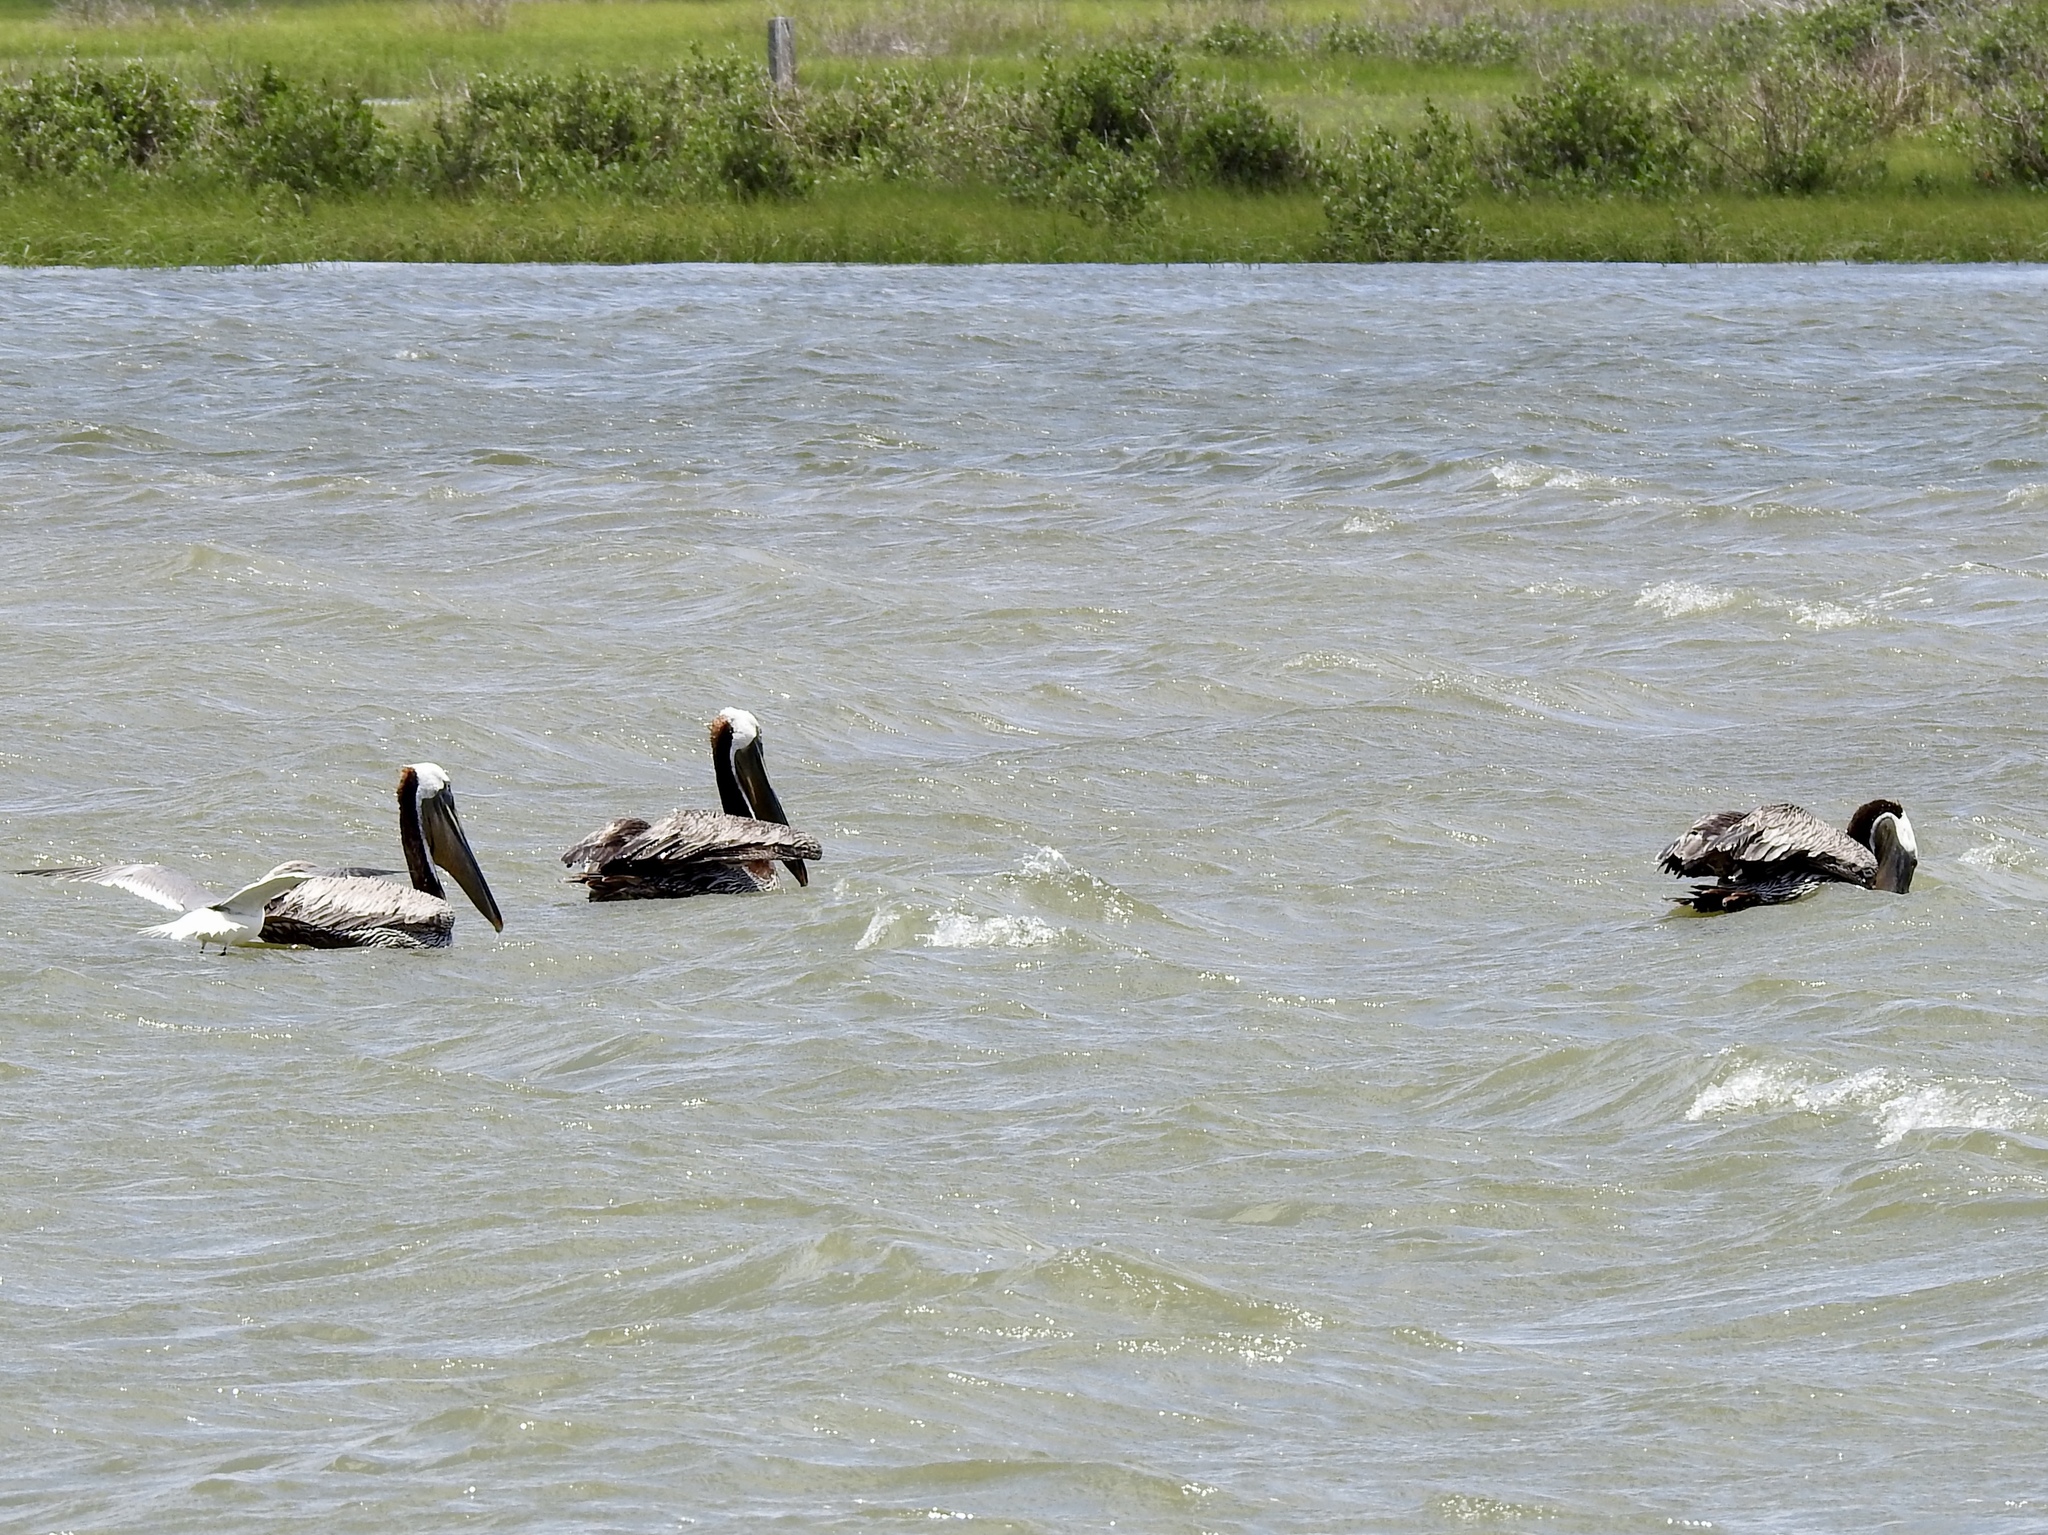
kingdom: Animalia
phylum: Chordata
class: Aves
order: Pelecaniformes
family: Pelecanidae
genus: Pelecanus
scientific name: Pelecanus occidentalis
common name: Brown pelican
